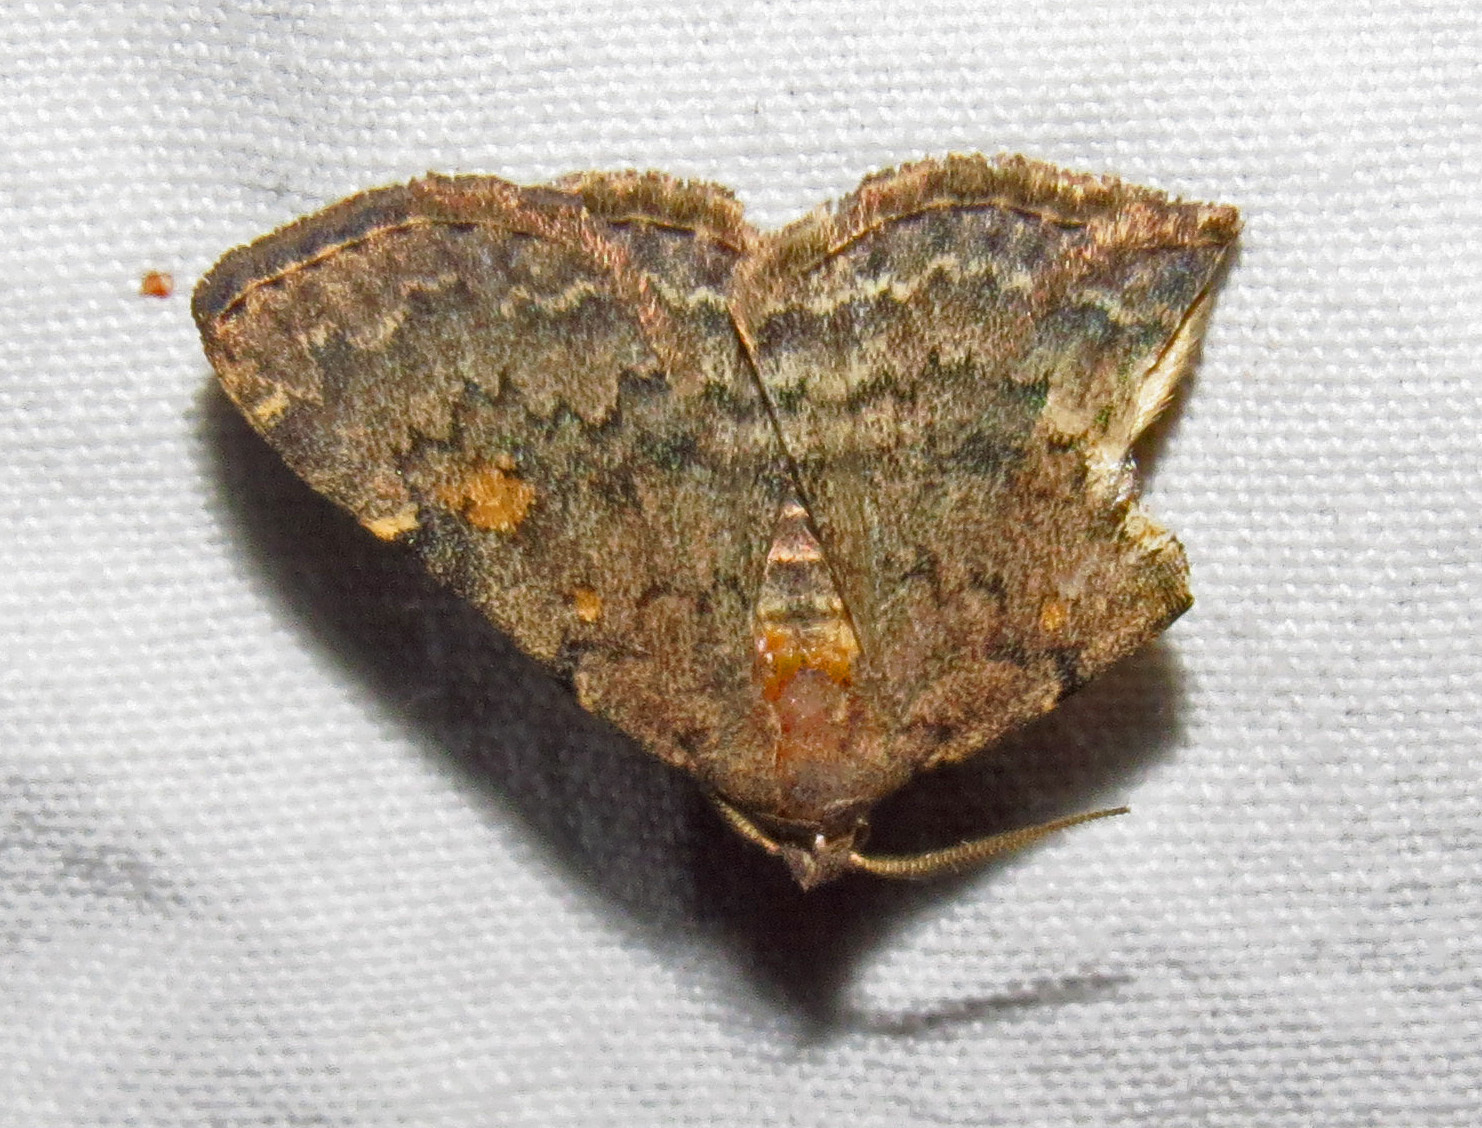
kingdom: Animalia
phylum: Arthropoda
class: Insecta
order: Lepidoptera
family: Erebidae
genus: Idia
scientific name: Idia aemula
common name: Common idia moth
